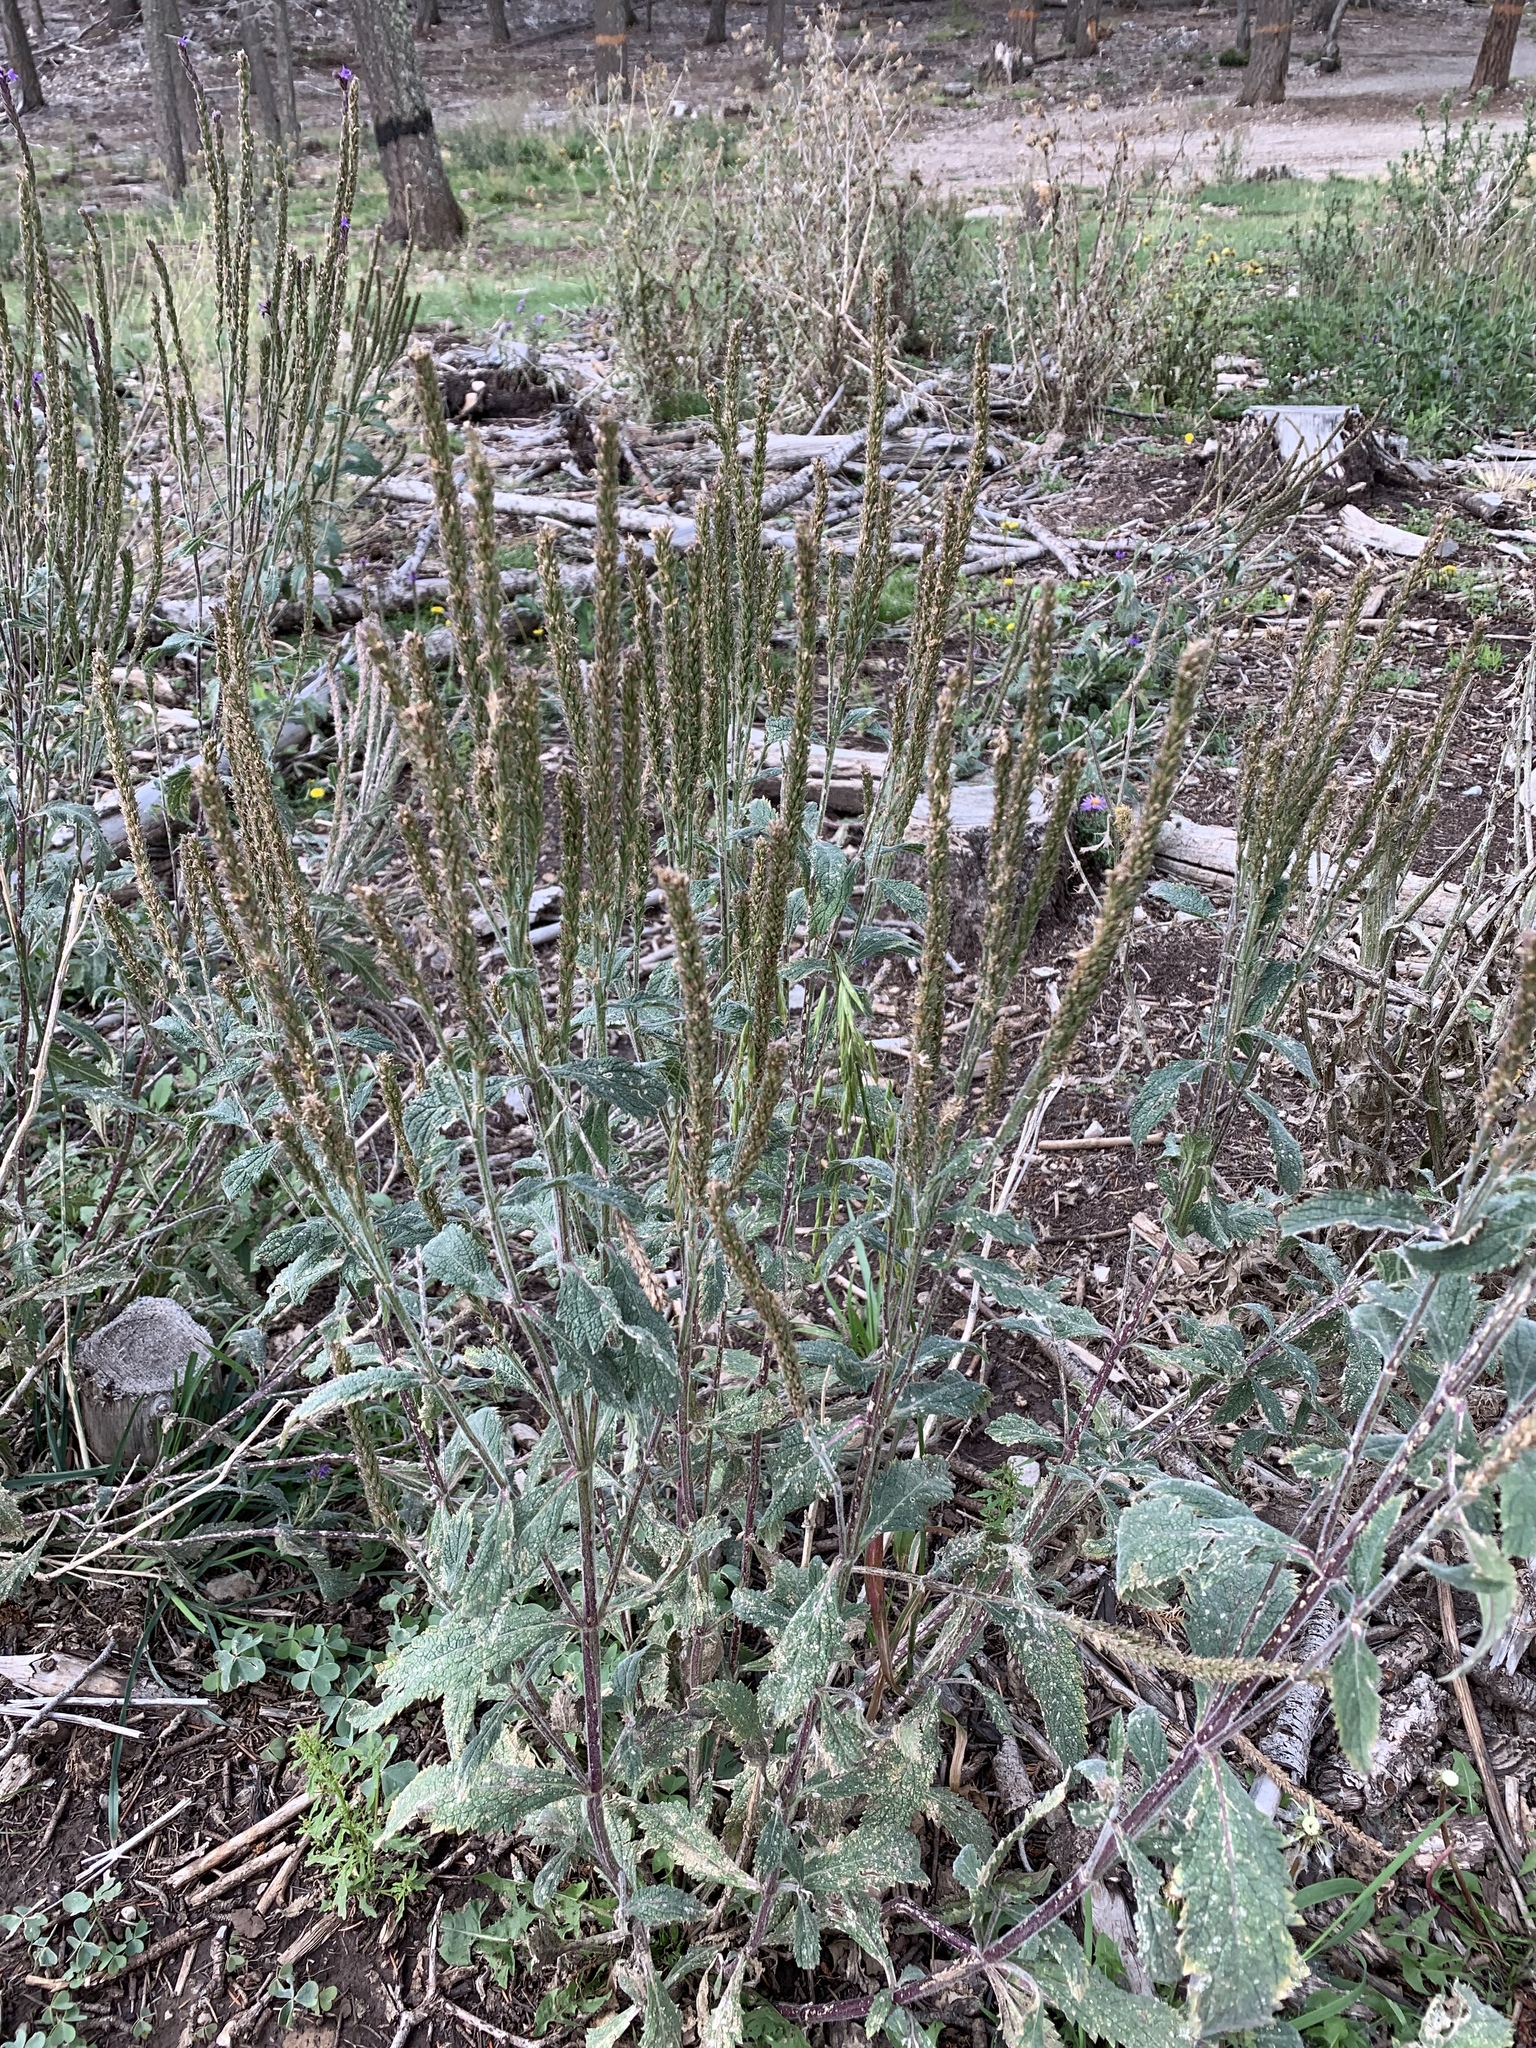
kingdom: Plantae
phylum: Tracheophyta
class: Magnoliopsida
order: Lamiales
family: Verbenaceae
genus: Verbena
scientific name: Verbena macdougalii
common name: New mexico vervain
